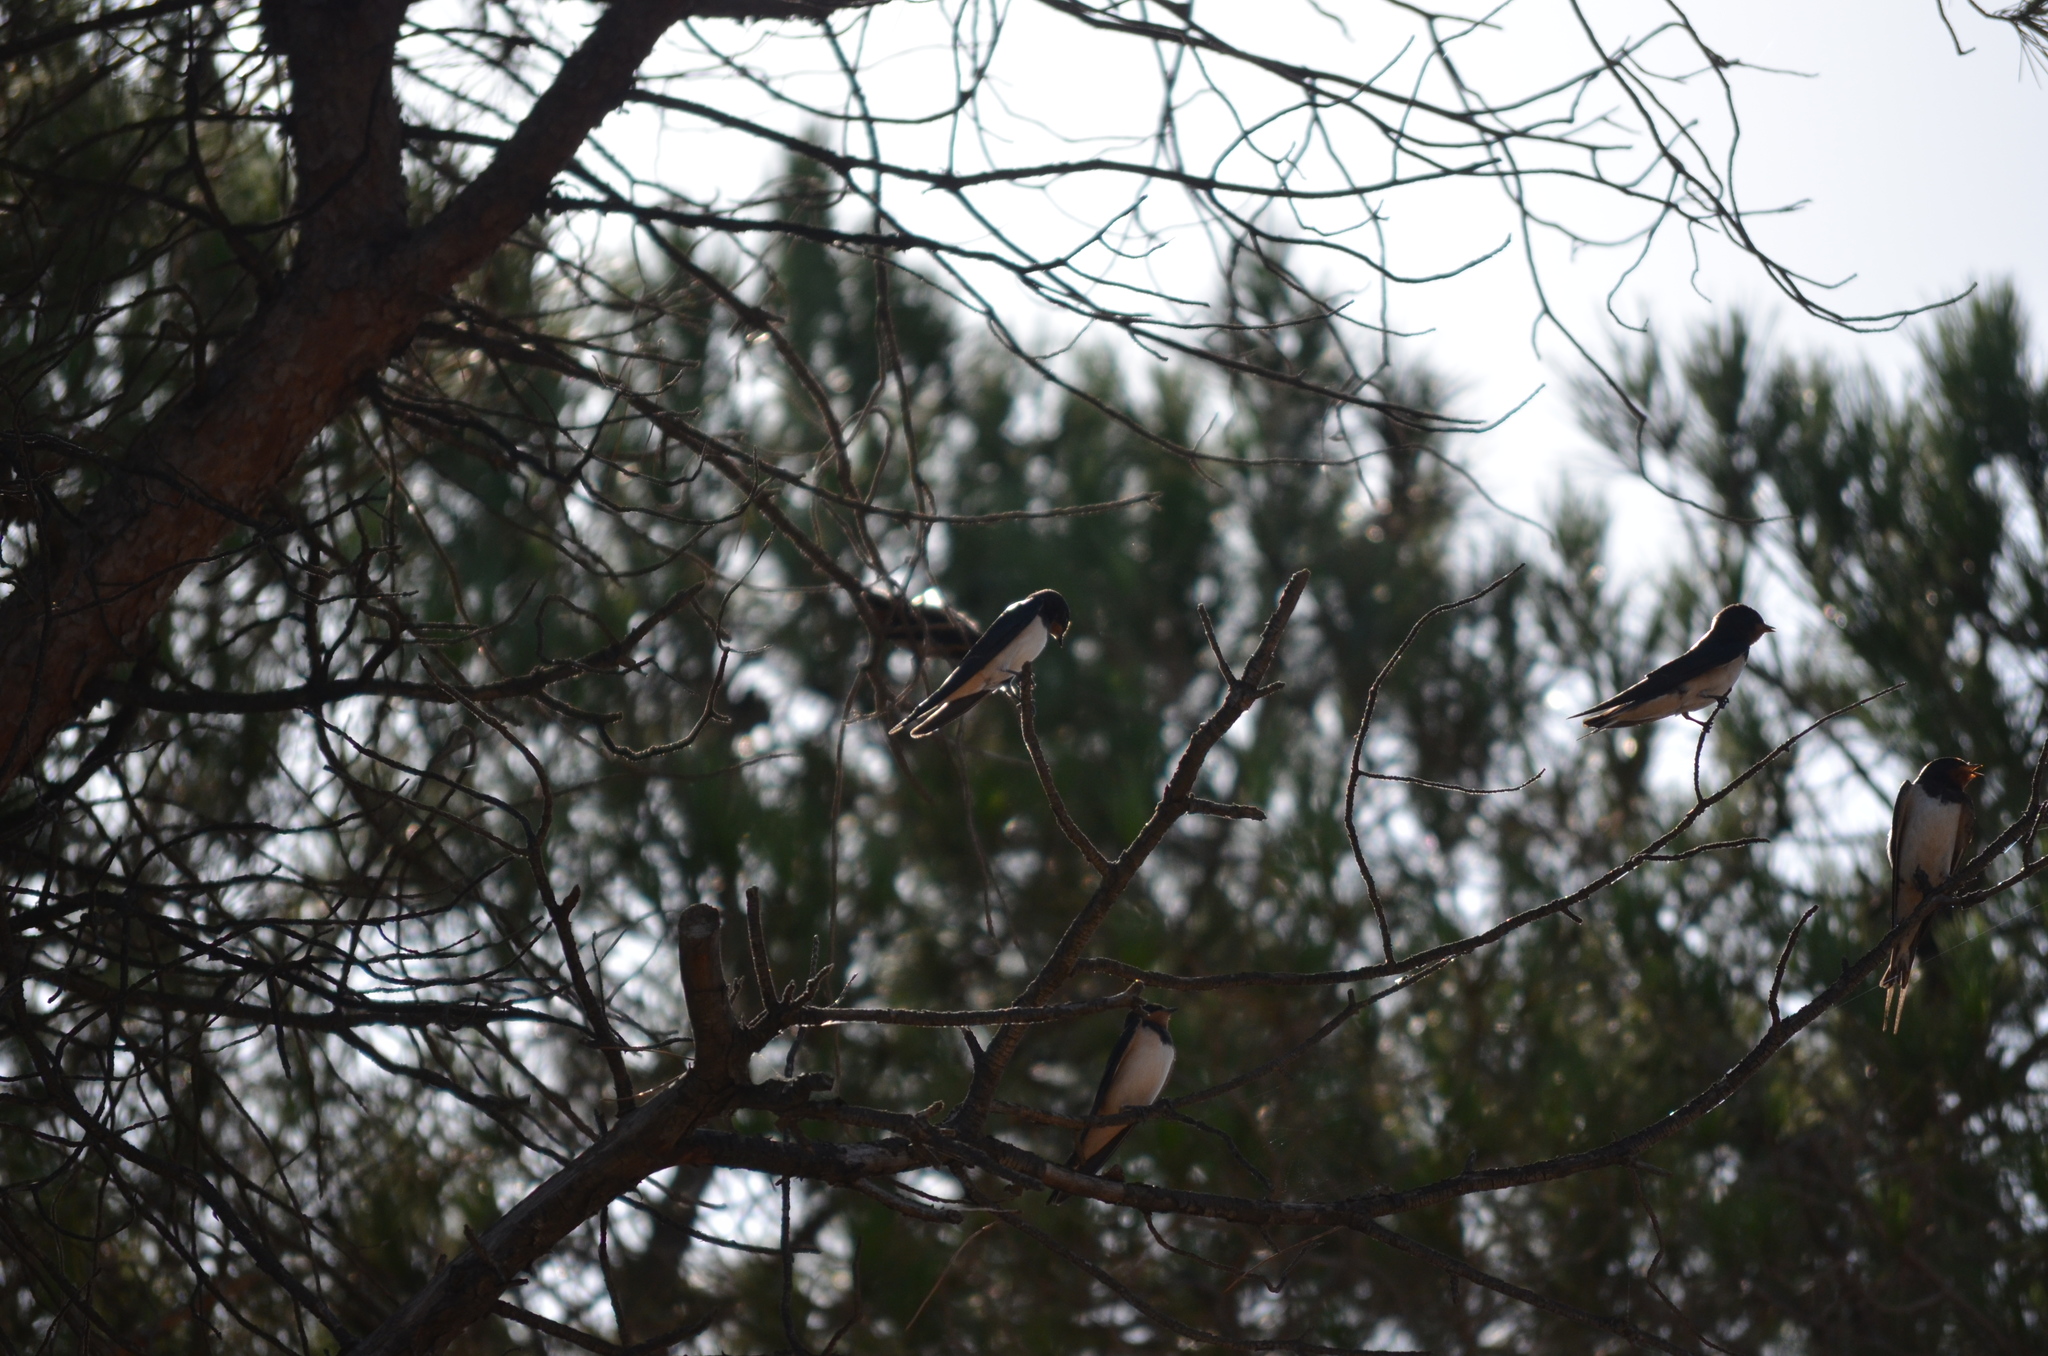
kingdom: Animalia
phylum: Chordata
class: Aves
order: Passeriformes
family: Hirundinidae
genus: Hirundo
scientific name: Hirundo rustica
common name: Barn swallow
